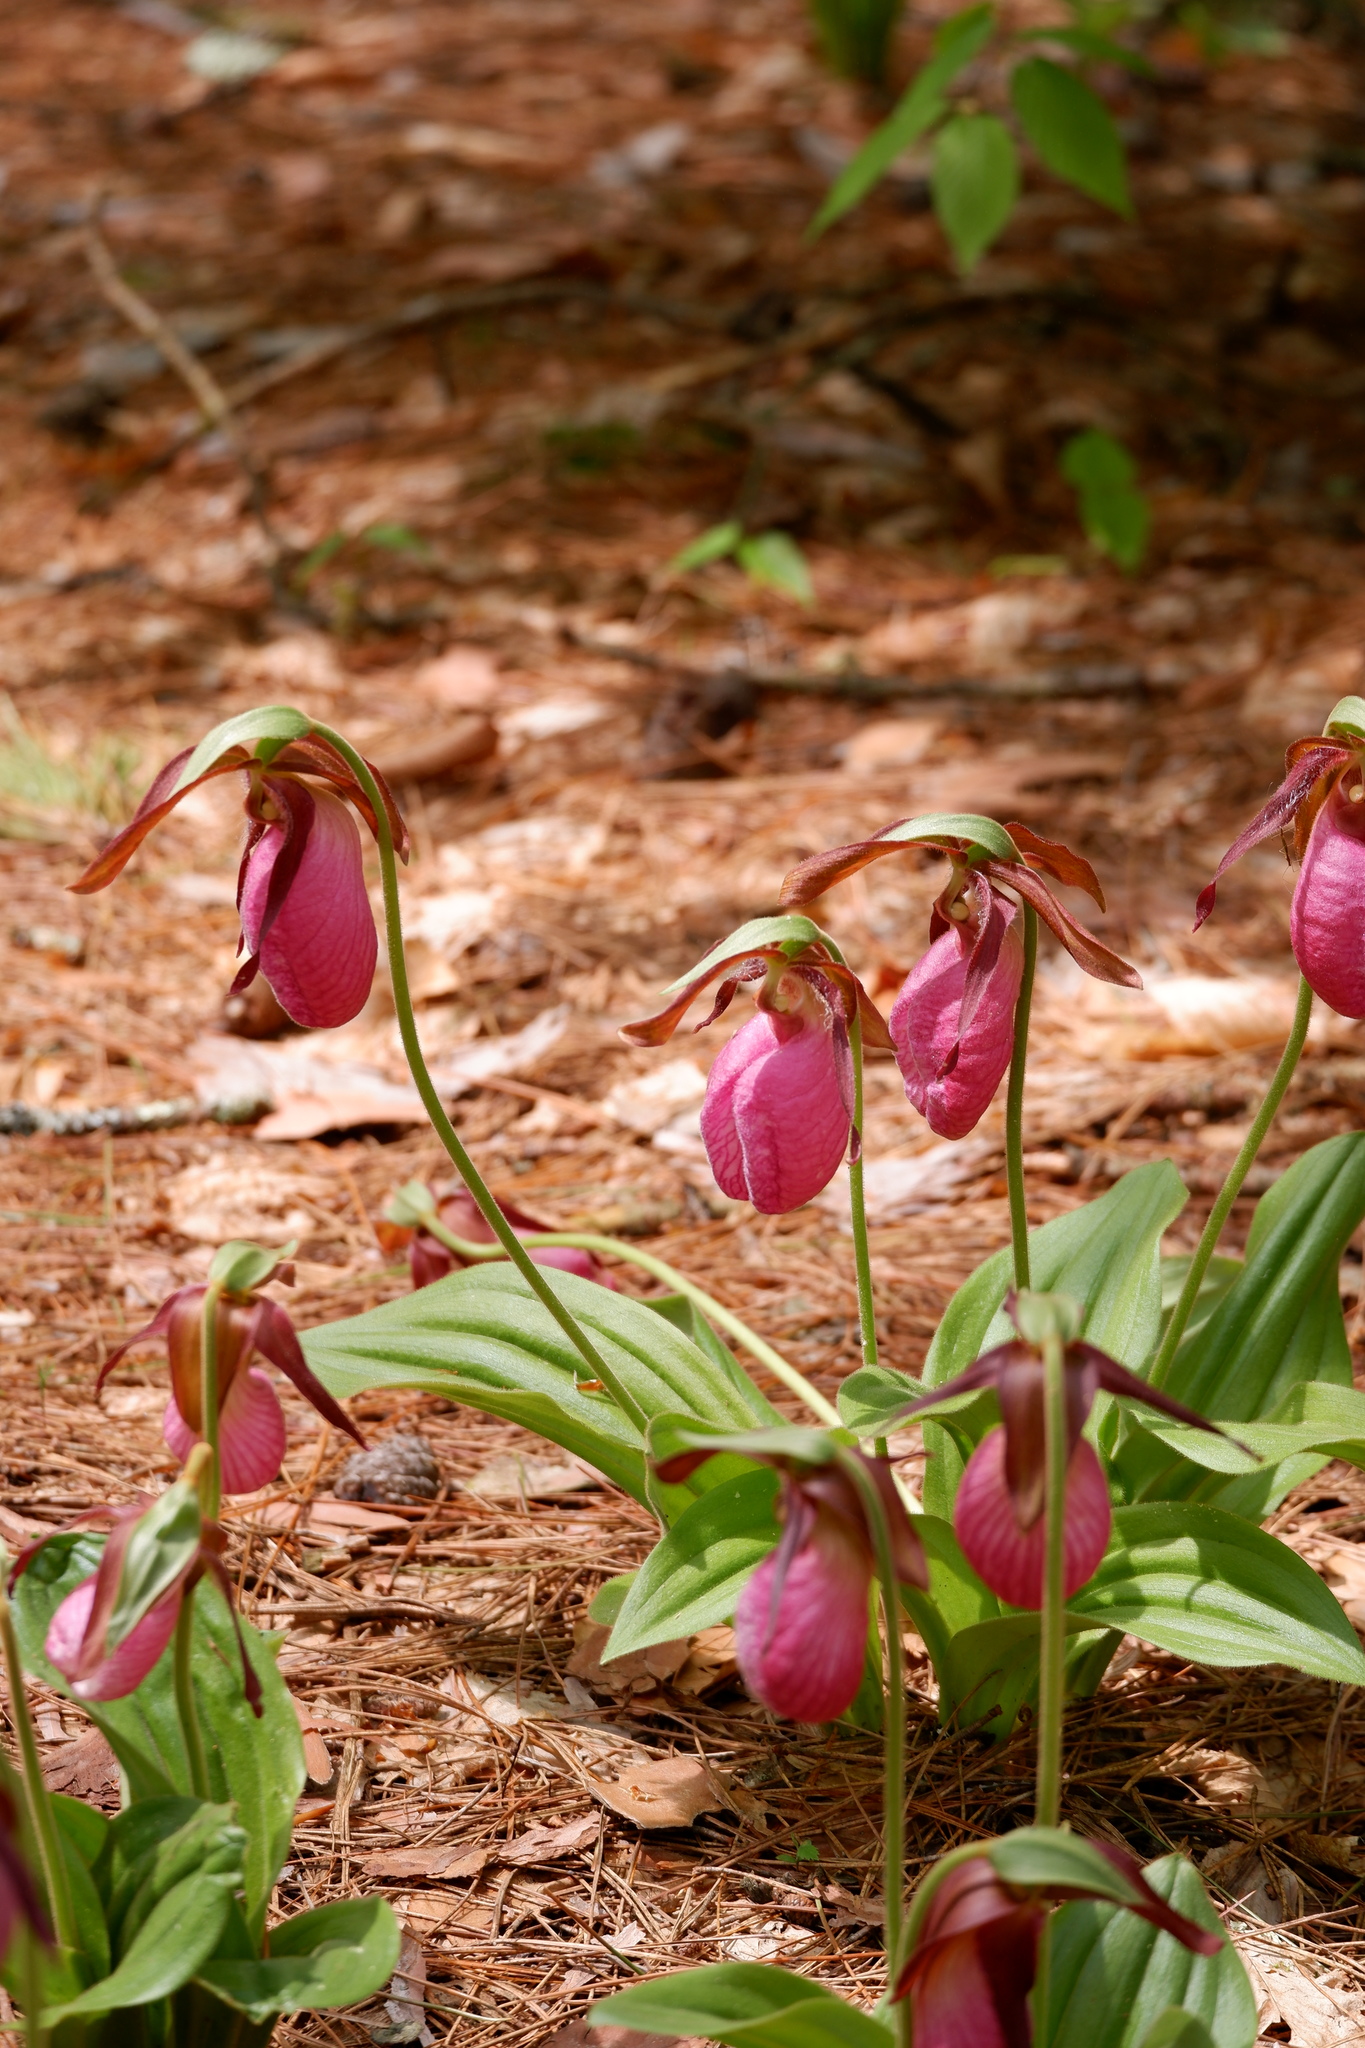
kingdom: Plantae
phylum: Tracheophyta
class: Liliopsida
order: Asparagales
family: Orchidaceae
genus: Cypripedium
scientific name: Cypripedium acaule
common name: Pink lady's-slipper
